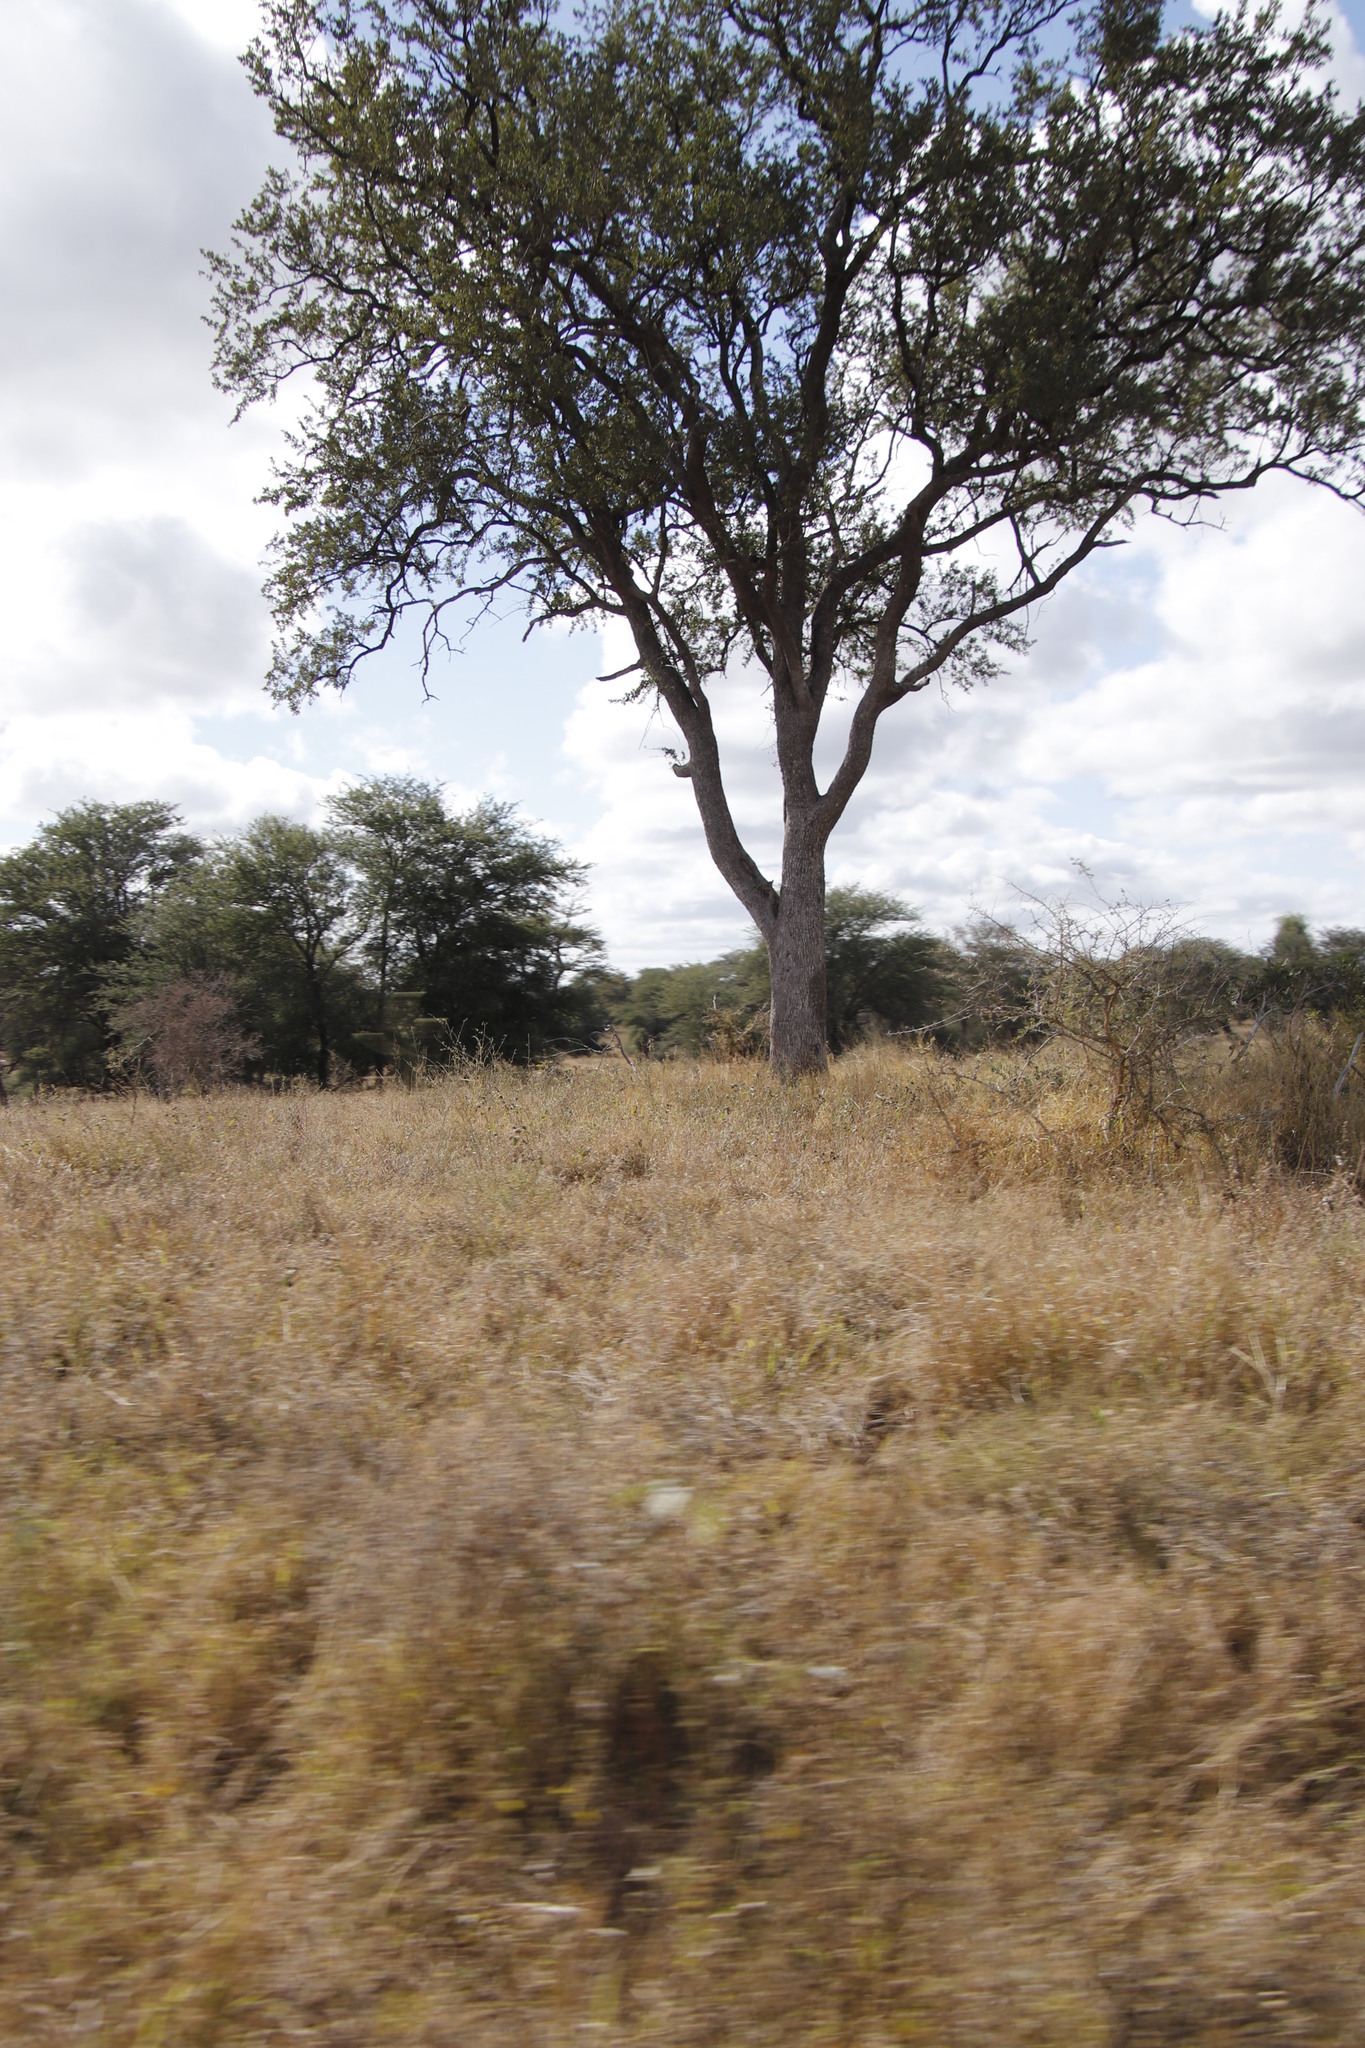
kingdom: Plantae
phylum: Tracheophyta
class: Magnoliopsida
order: Myrtales
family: Combretaceae
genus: Combretum
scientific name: Combretum imberbe
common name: Leadwood
